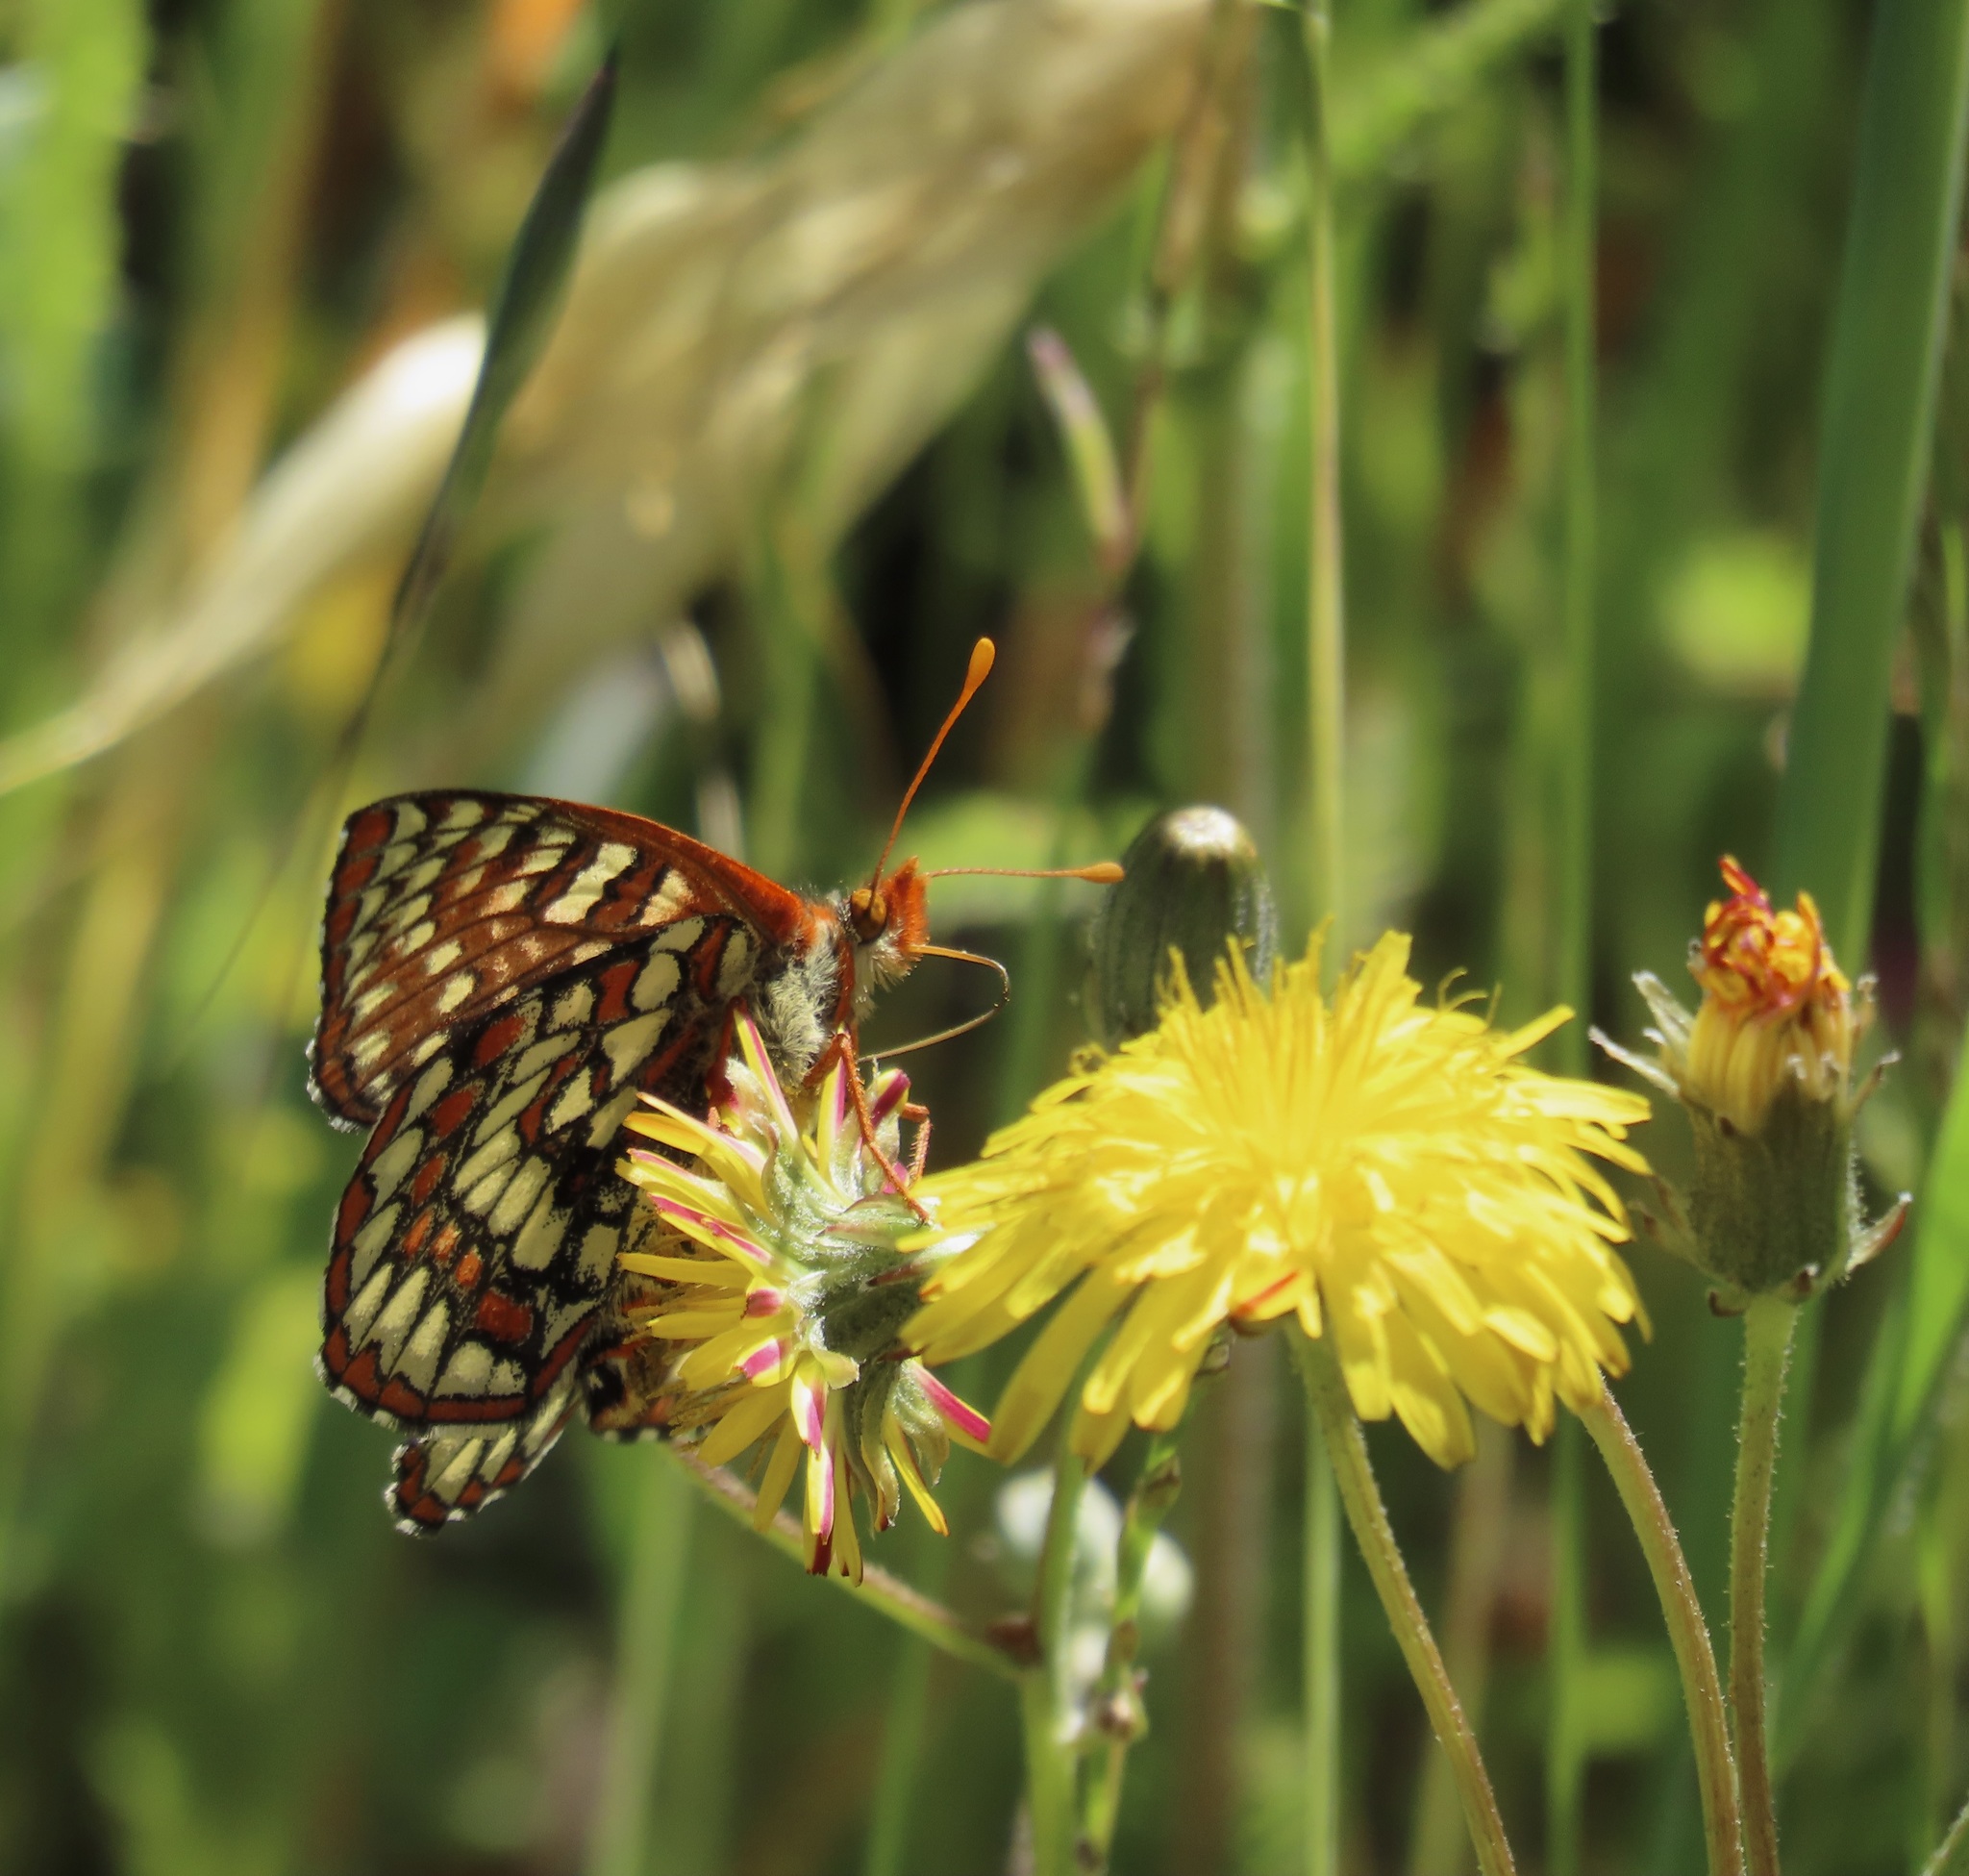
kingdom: Animalia
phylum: Arthropoda
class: Insecta
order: Lepidoptera
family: Nymphalidae
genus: Occidryas
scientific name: Occidryas chalcedona
